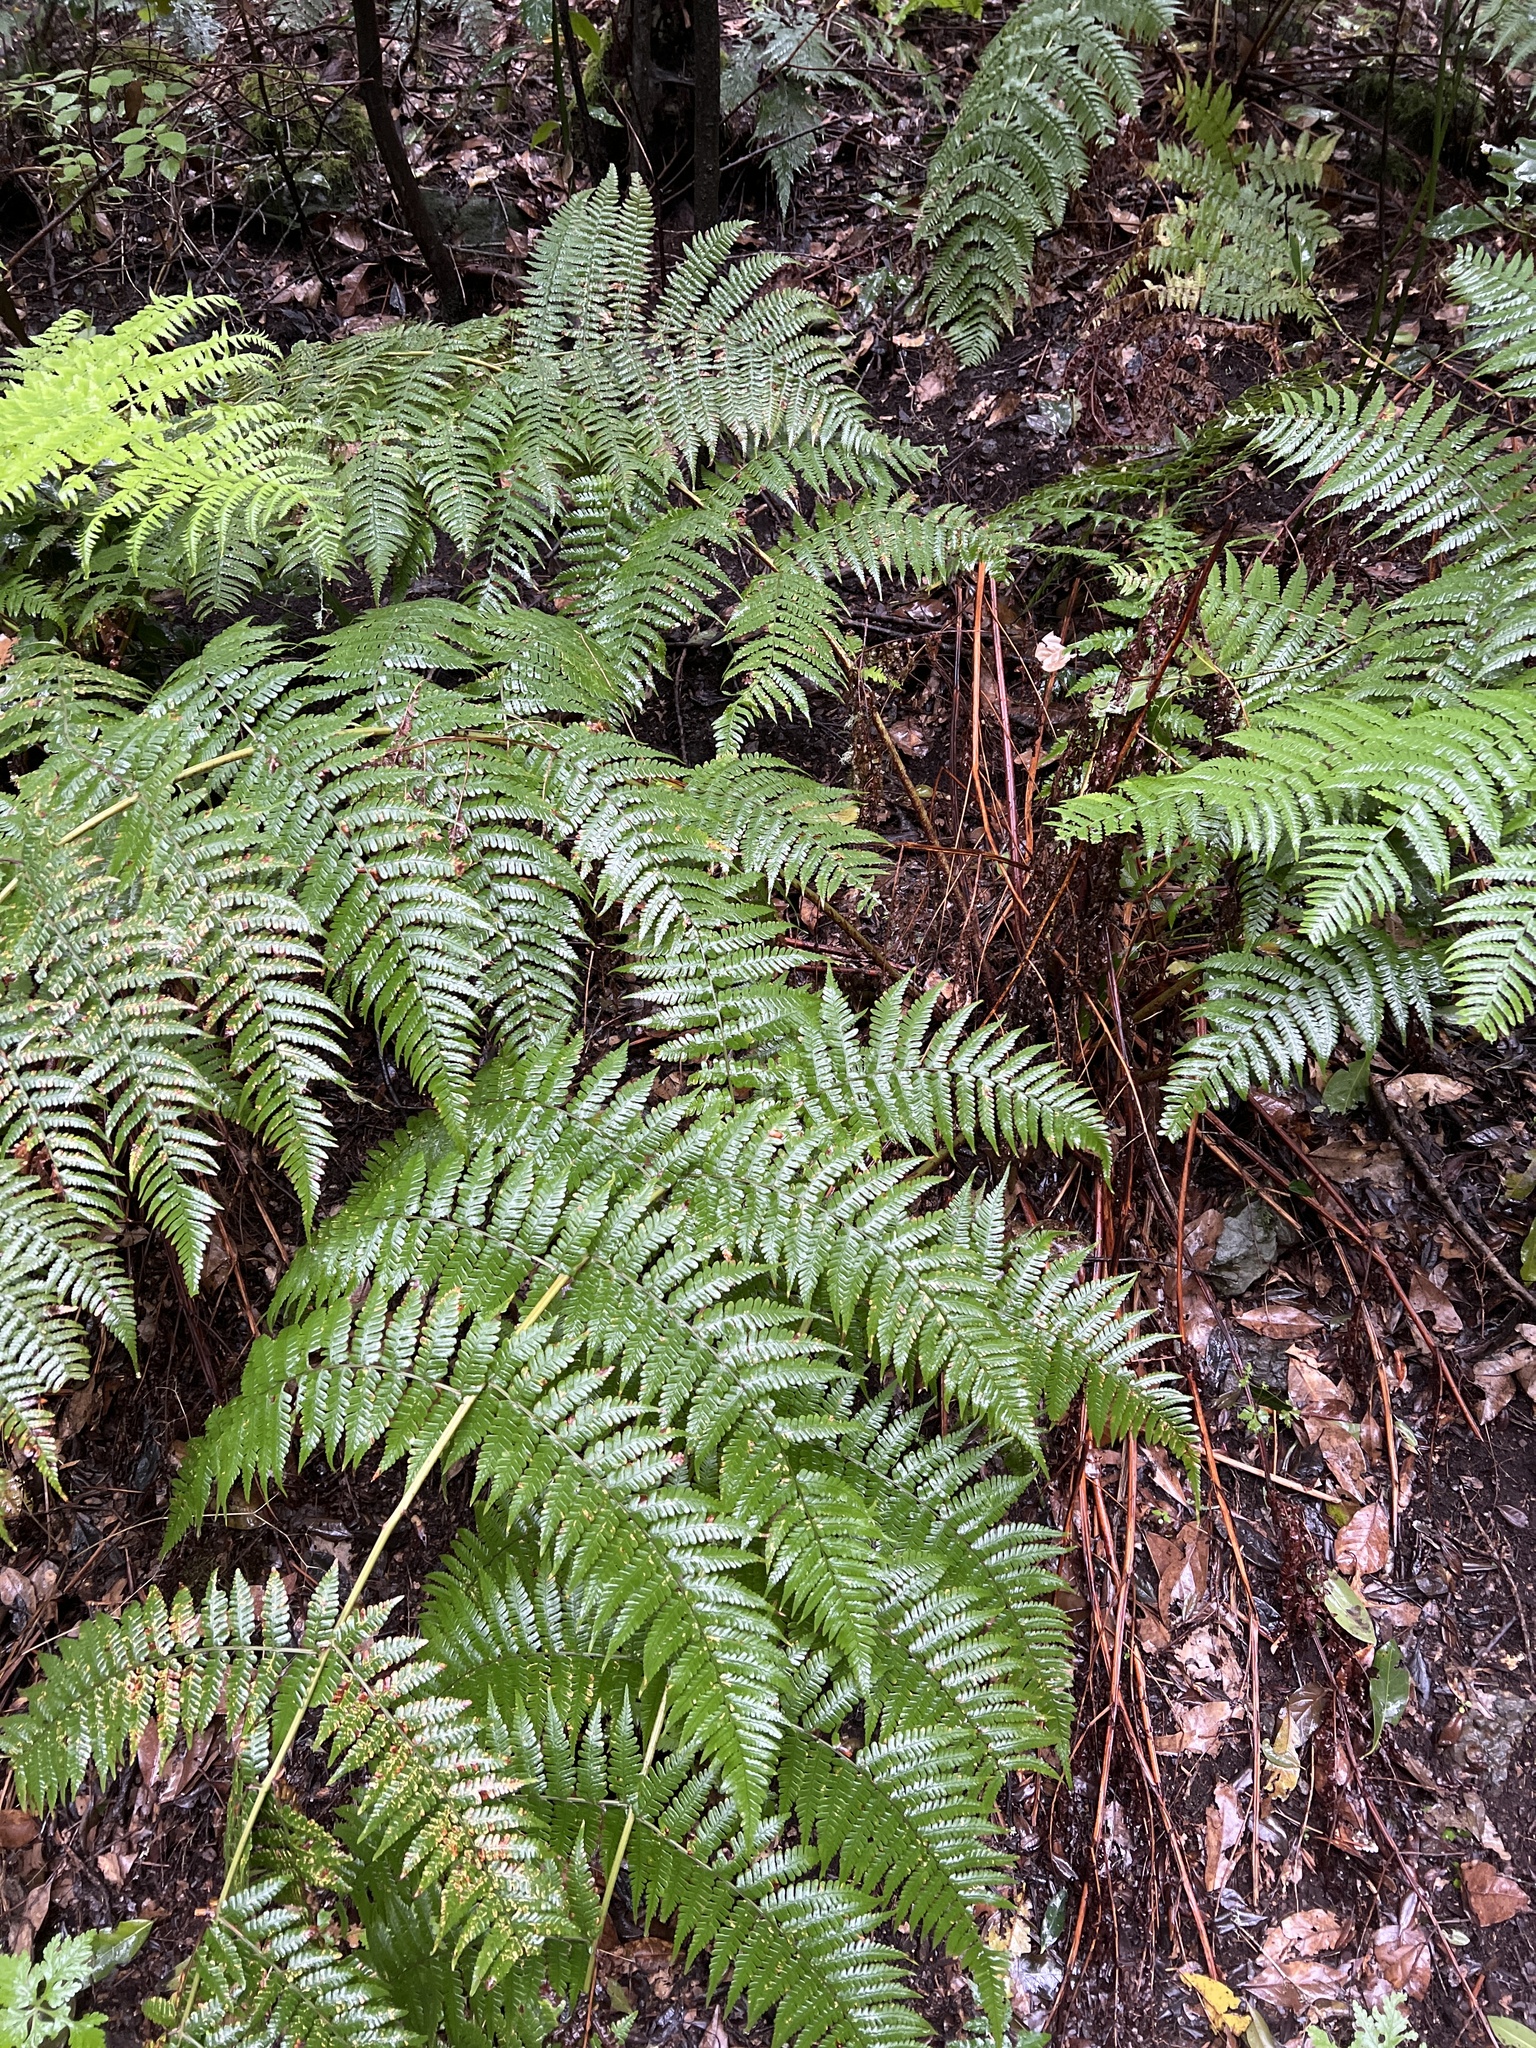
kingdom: Plantae
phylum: Tracheophyta
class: Polypodiopsida
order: Polypodiales
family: Dryopteridaceae
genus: Dryopteris
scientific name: Dryopteris oligodonta
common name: Canarian male-fern
